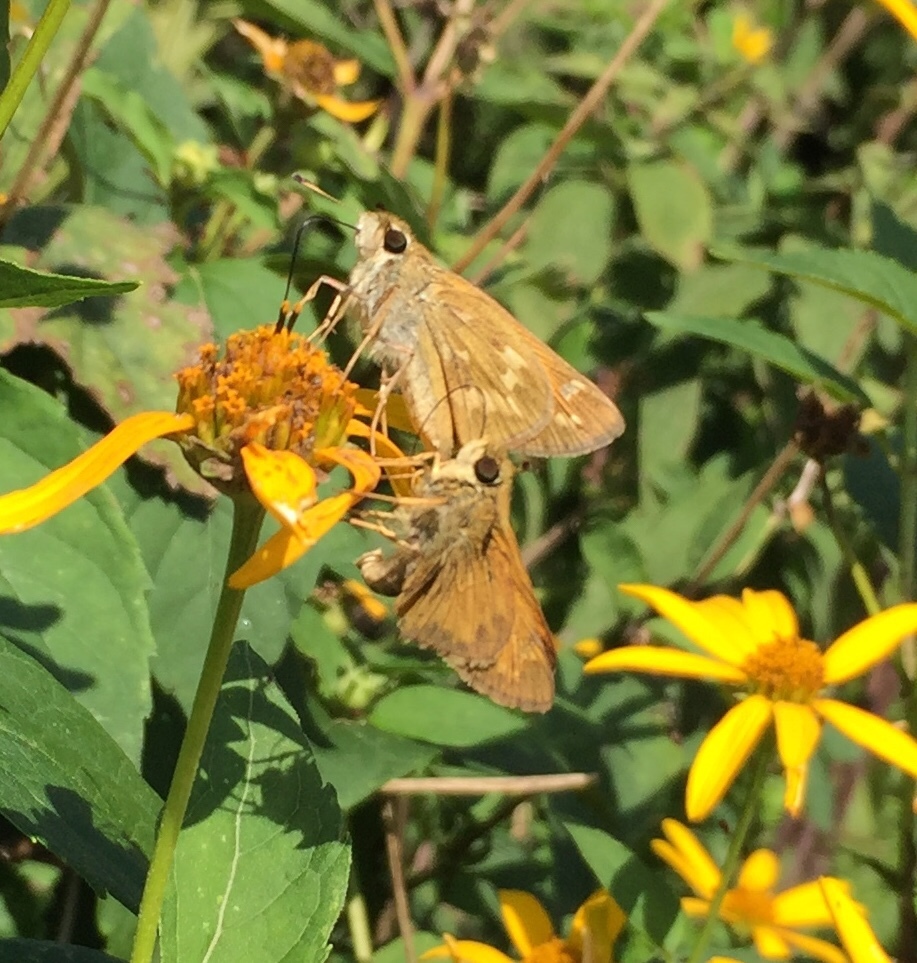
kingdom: Animalia
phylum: Arthropoda
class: Insecta
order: Lepidoptera
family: Hesperiidae
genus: Atalopedes
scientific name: Atalopedes
